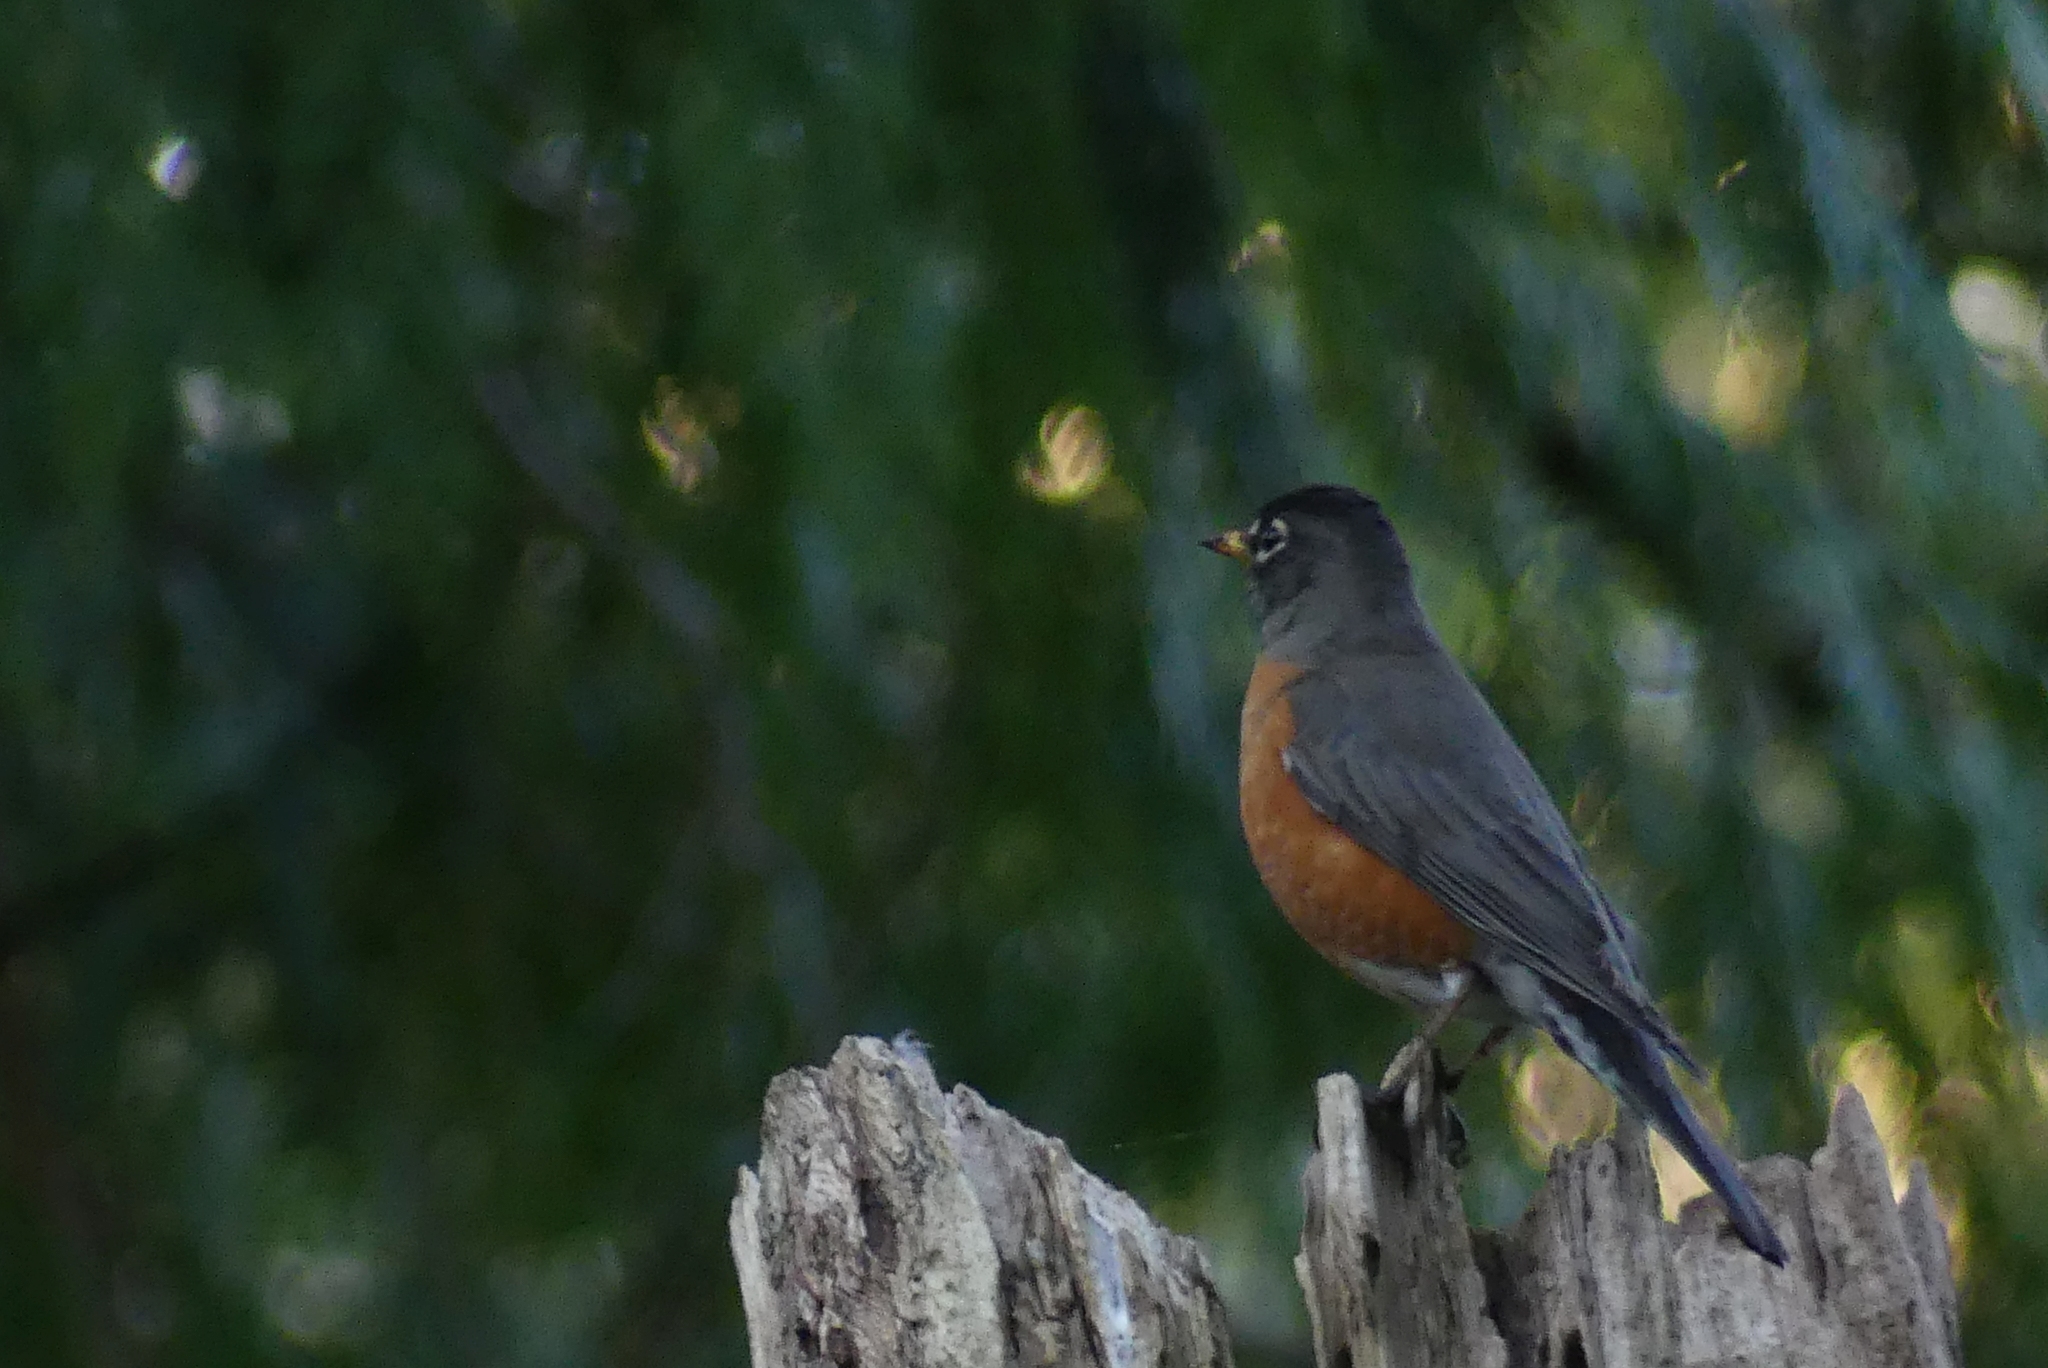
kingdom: Animalia
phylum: Chordata
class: Aves
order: Passeriformes
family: Turdidae
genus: Turdus
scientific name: Turdus migratorius
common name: American robin
